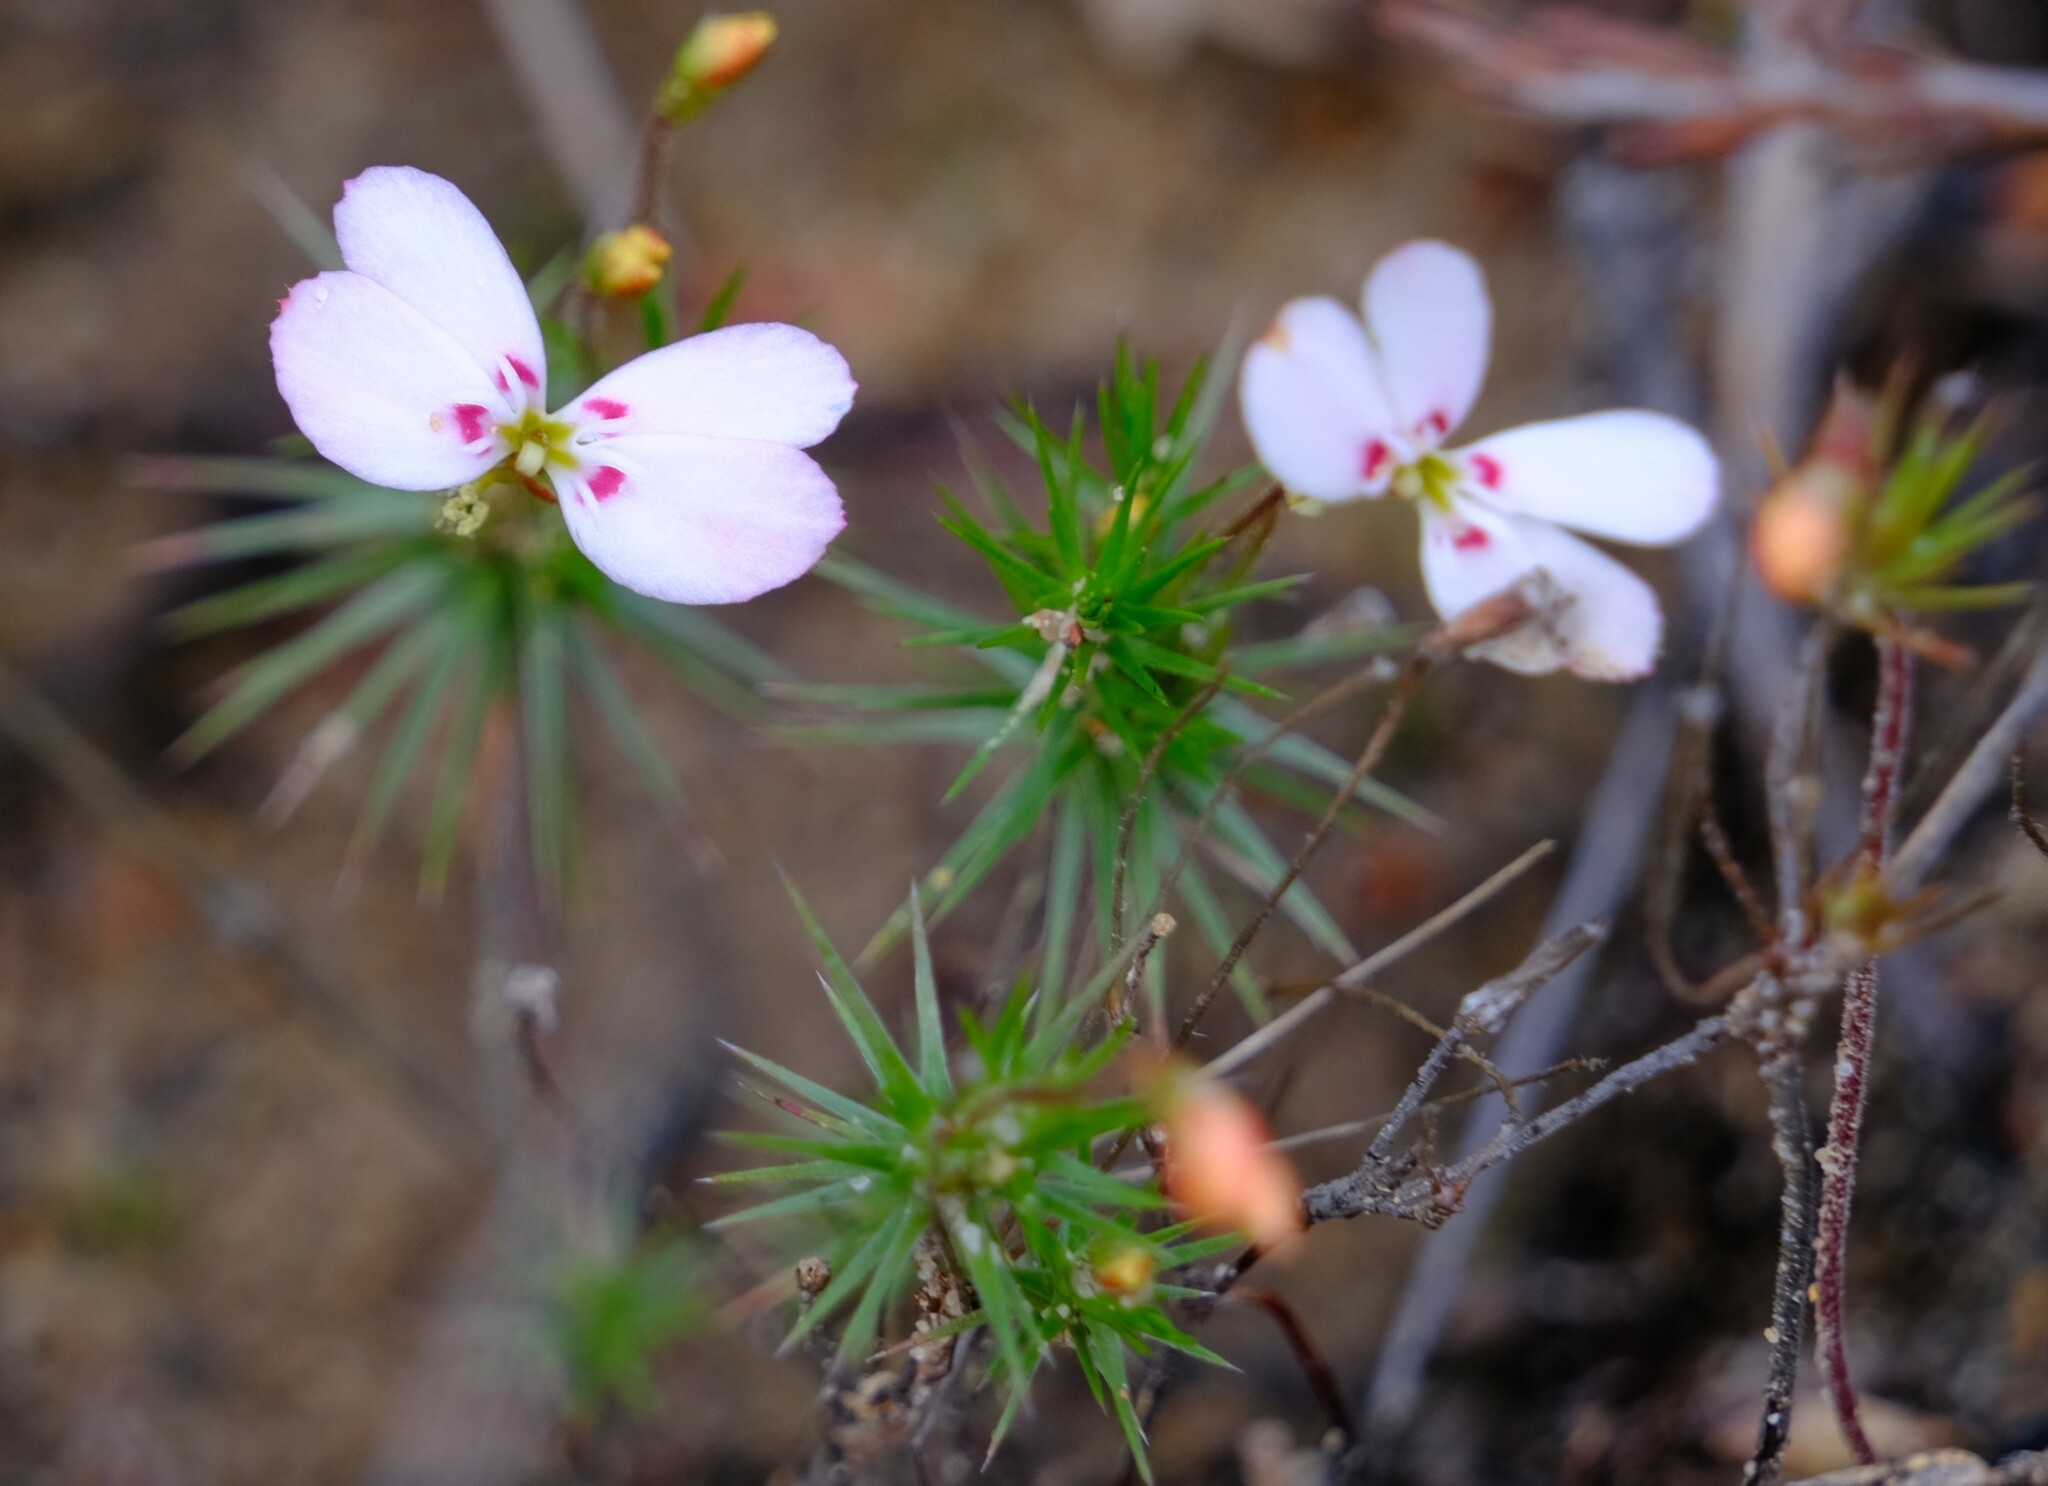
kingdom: Plantae
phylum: Tracheophyta
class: Magnoliopsida
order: Asterales
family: Stylidiaceae
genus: Stylidium
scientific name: Stylidium flagellum
